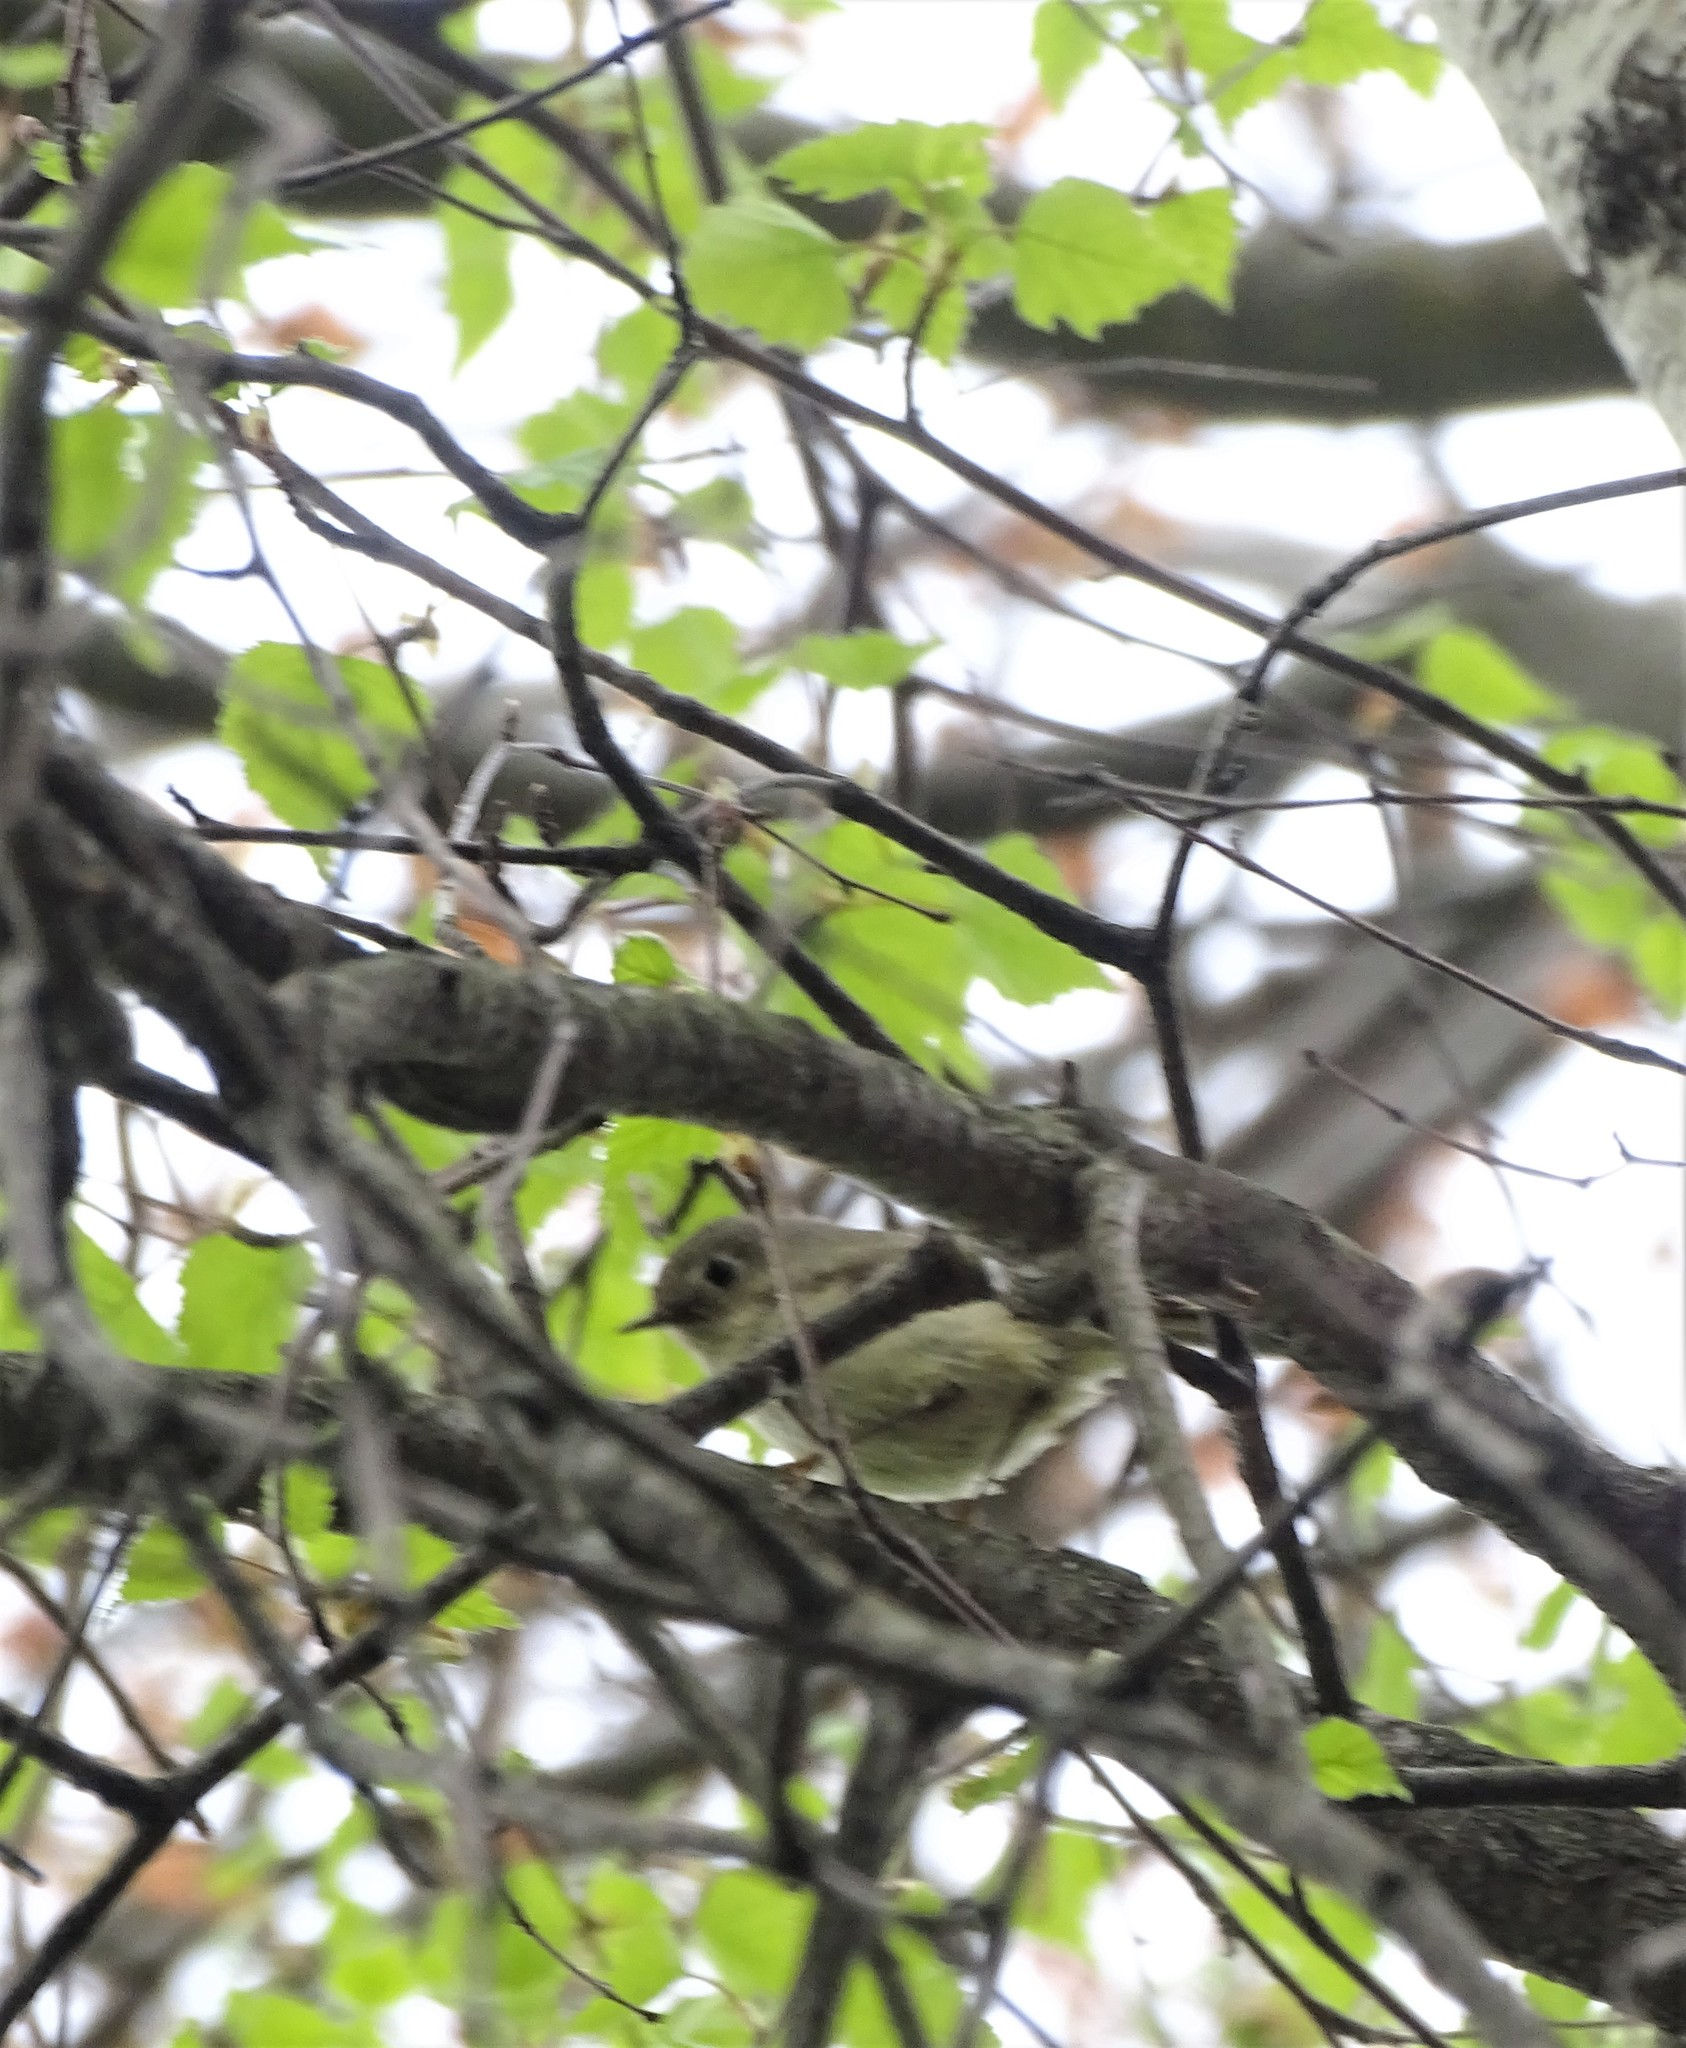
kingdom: Animalia
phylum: Chordata
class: Aves
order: Passeriformes
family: Regulidae
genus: Regulus
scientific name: Regulus calendula
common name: Ruby-crowned kinglet
